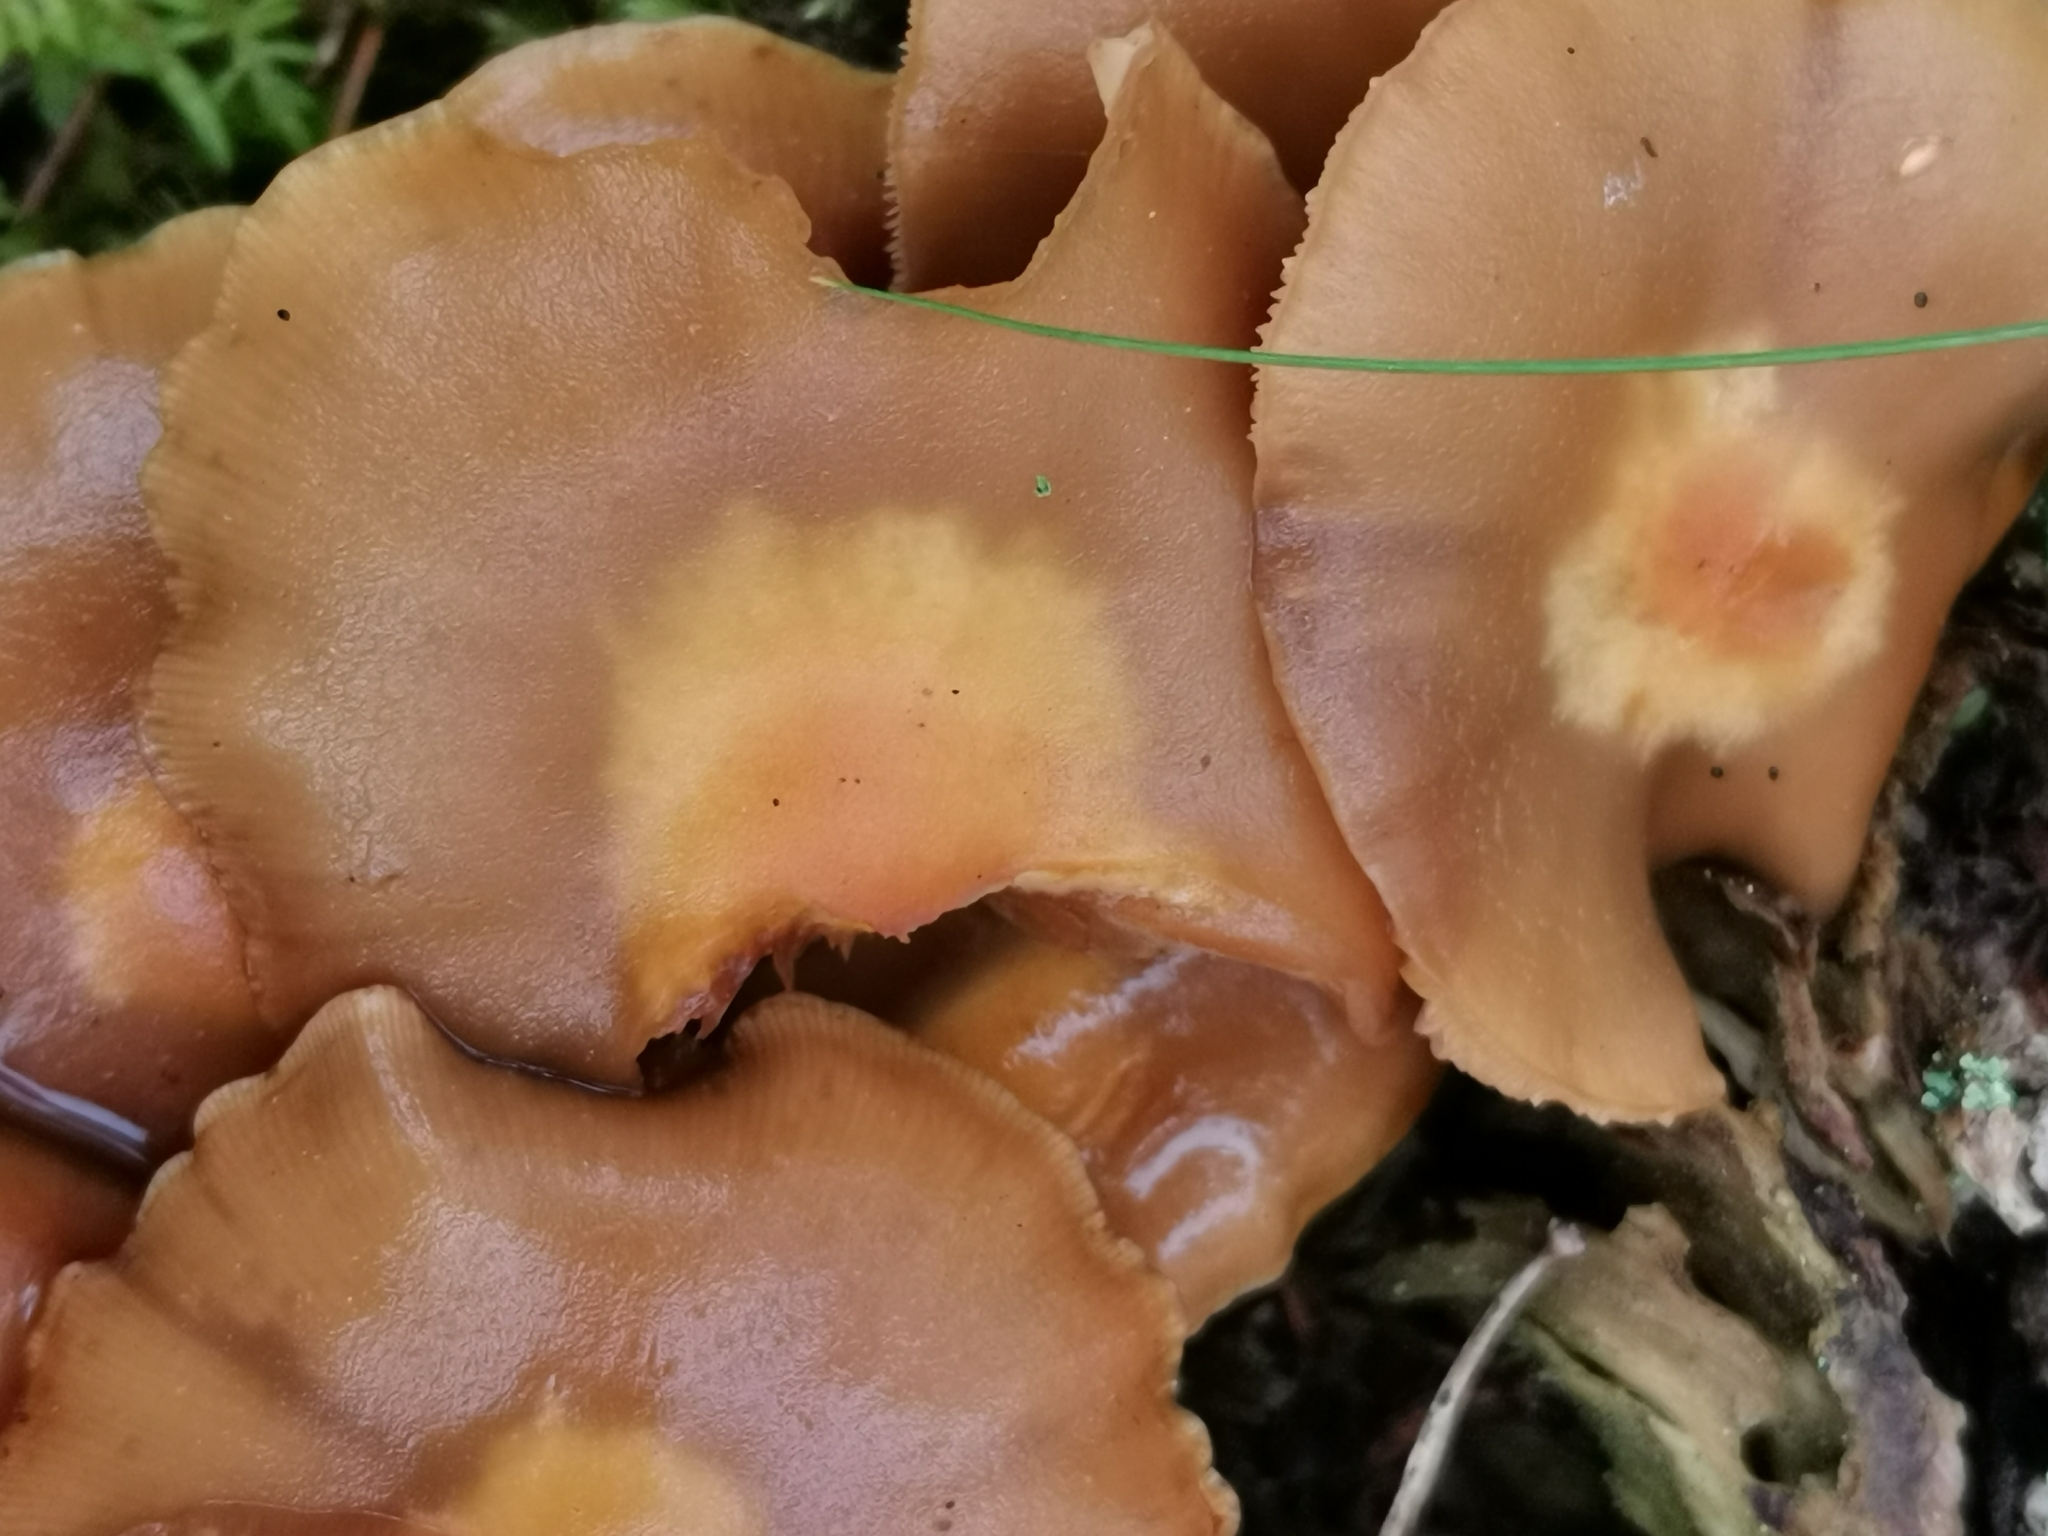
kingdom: Fungi
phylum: Basidiomycota
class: Agaricomycetes
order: Agaricales
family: Strophariaceae
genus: Kuehneromyces
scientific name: Kuehneromyces mutabilis
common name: Sheathed woodtuft
